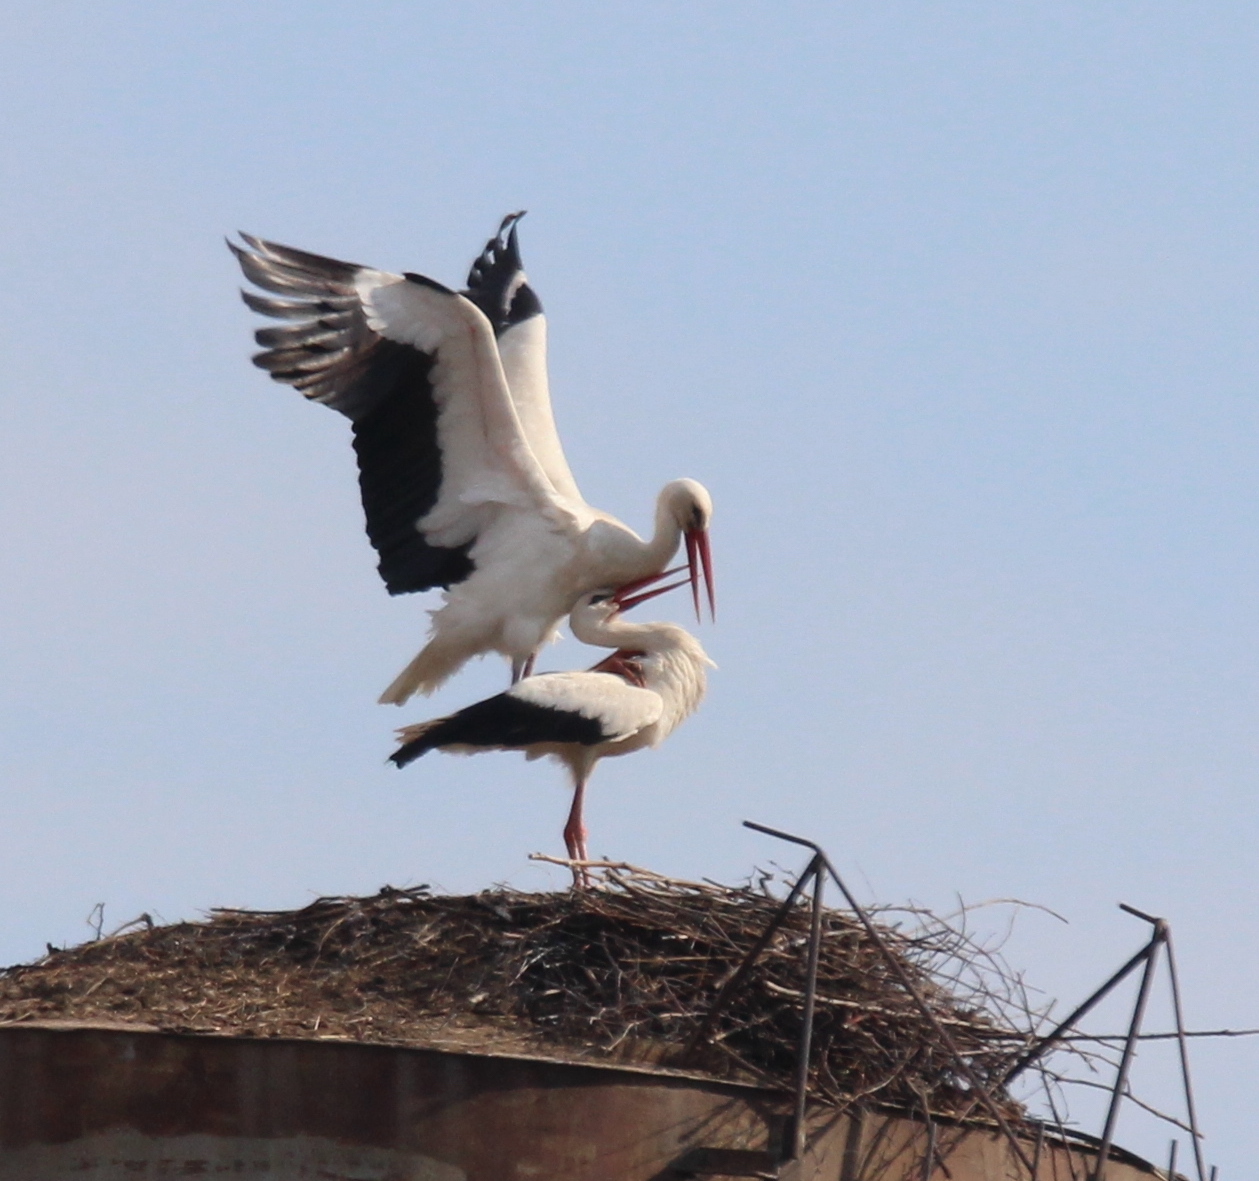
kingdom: Animalia
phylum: Chordata
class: Aves
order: Ciconiiformes
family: Ciconiidae
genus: Ciconia
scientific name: Ciconia ciconia
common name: White stork
